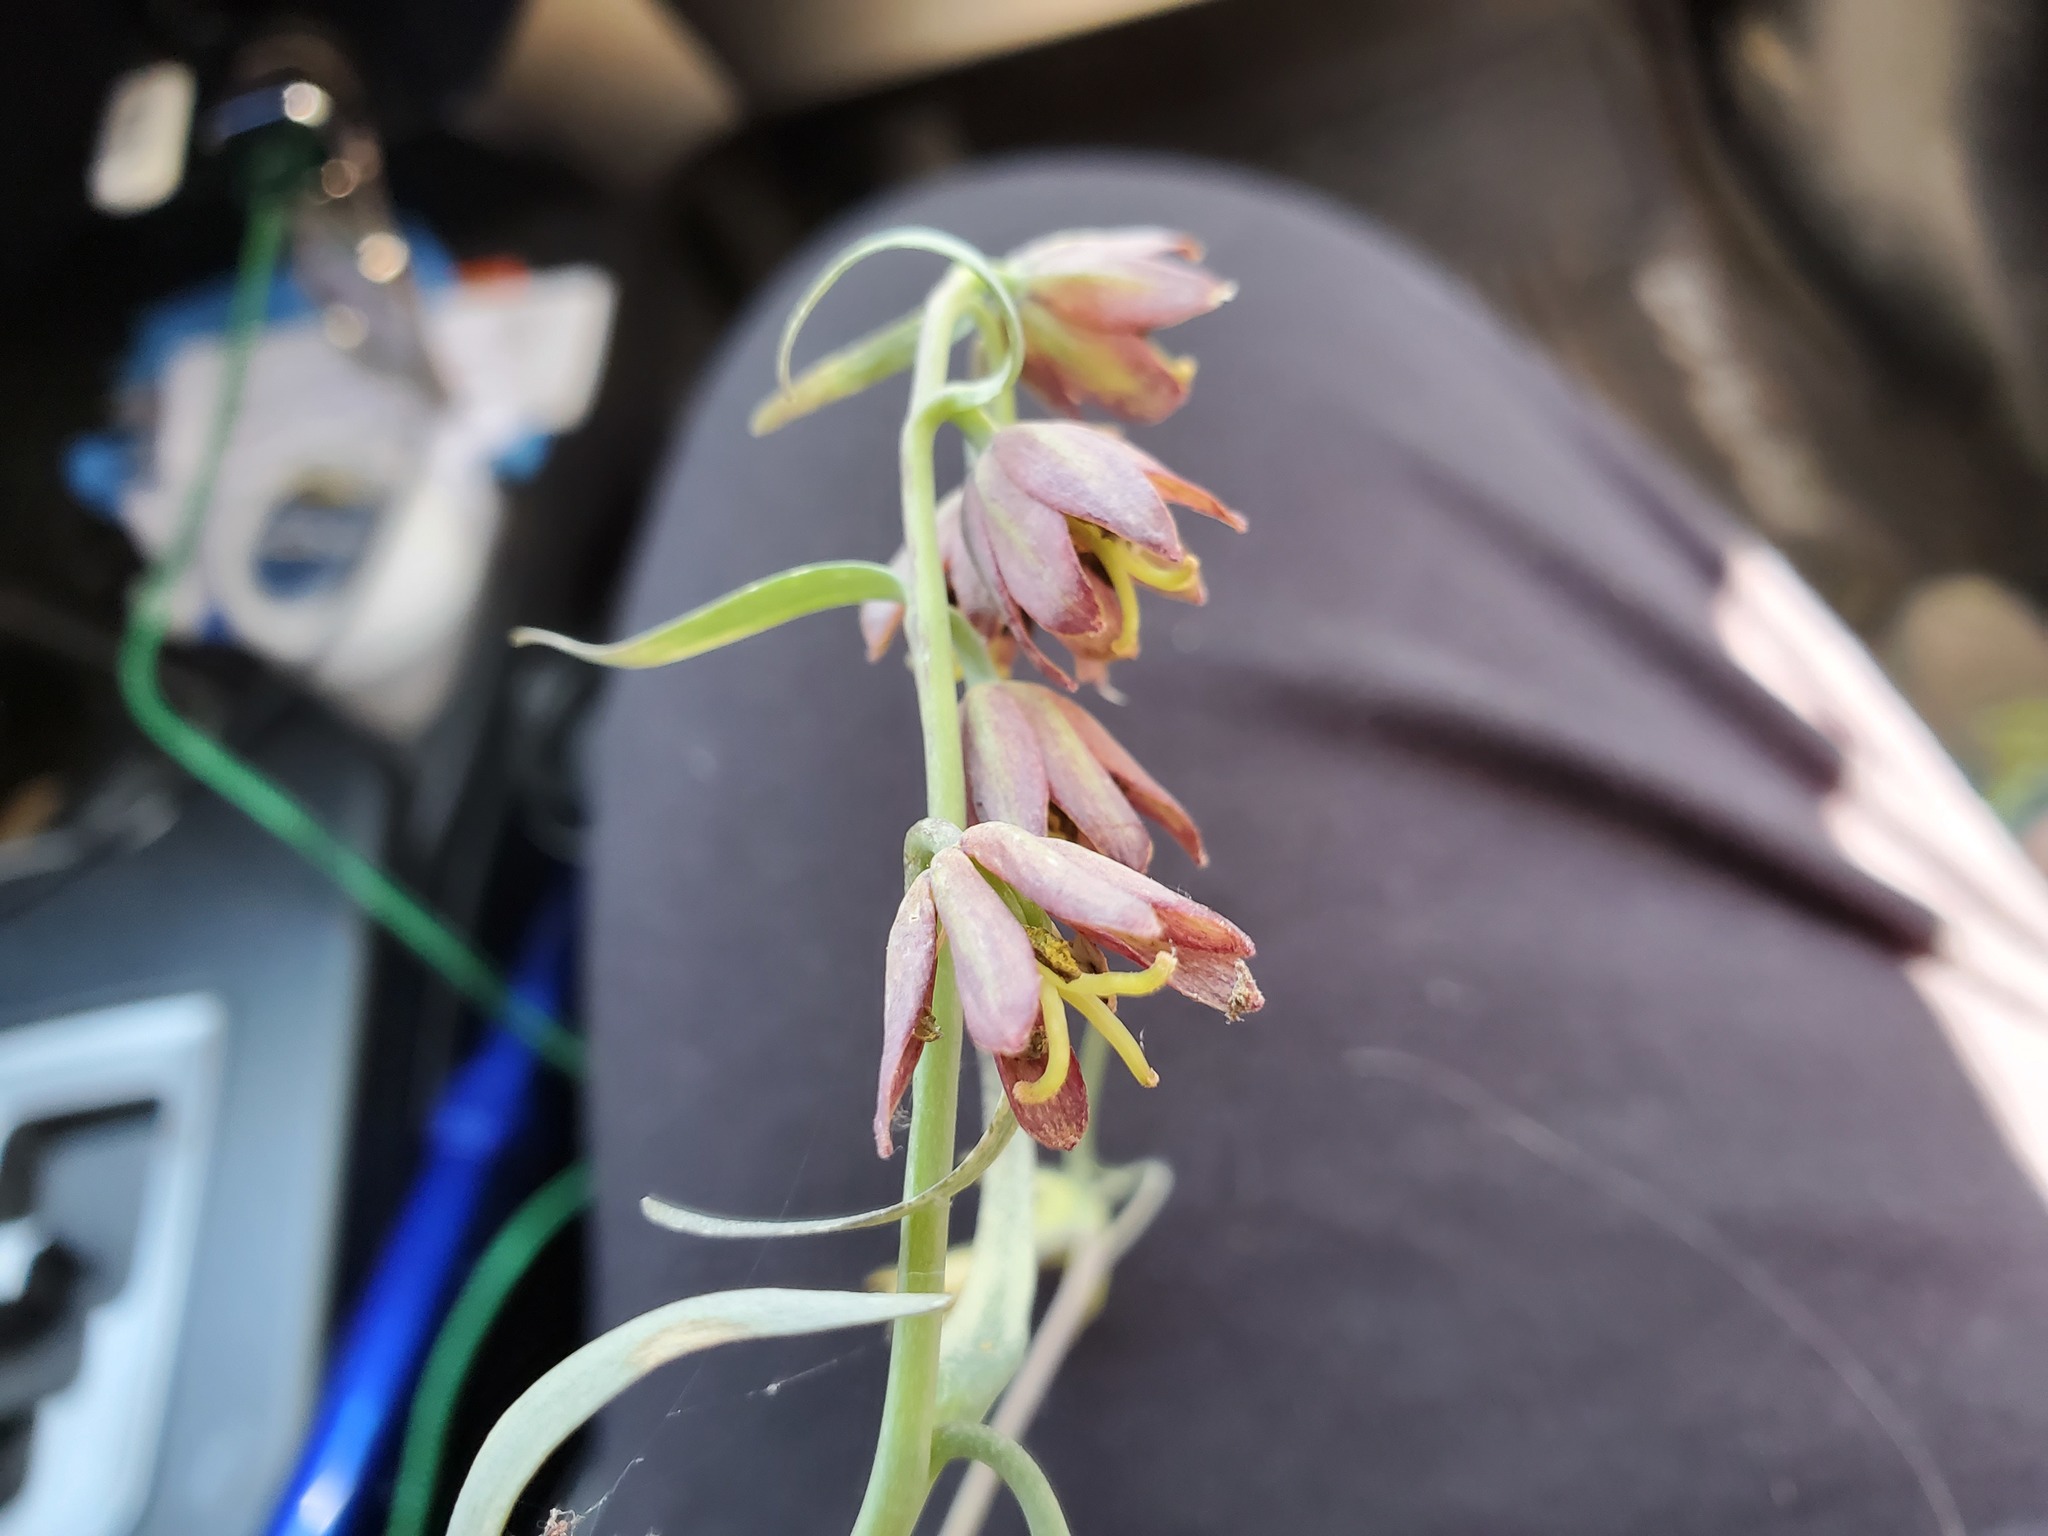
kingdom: Plantae
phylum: Tracheophyta
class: Liliopsida
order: Liliales
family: Liliaceae
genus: Fritillaria
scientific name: Fritillaria micrantha
